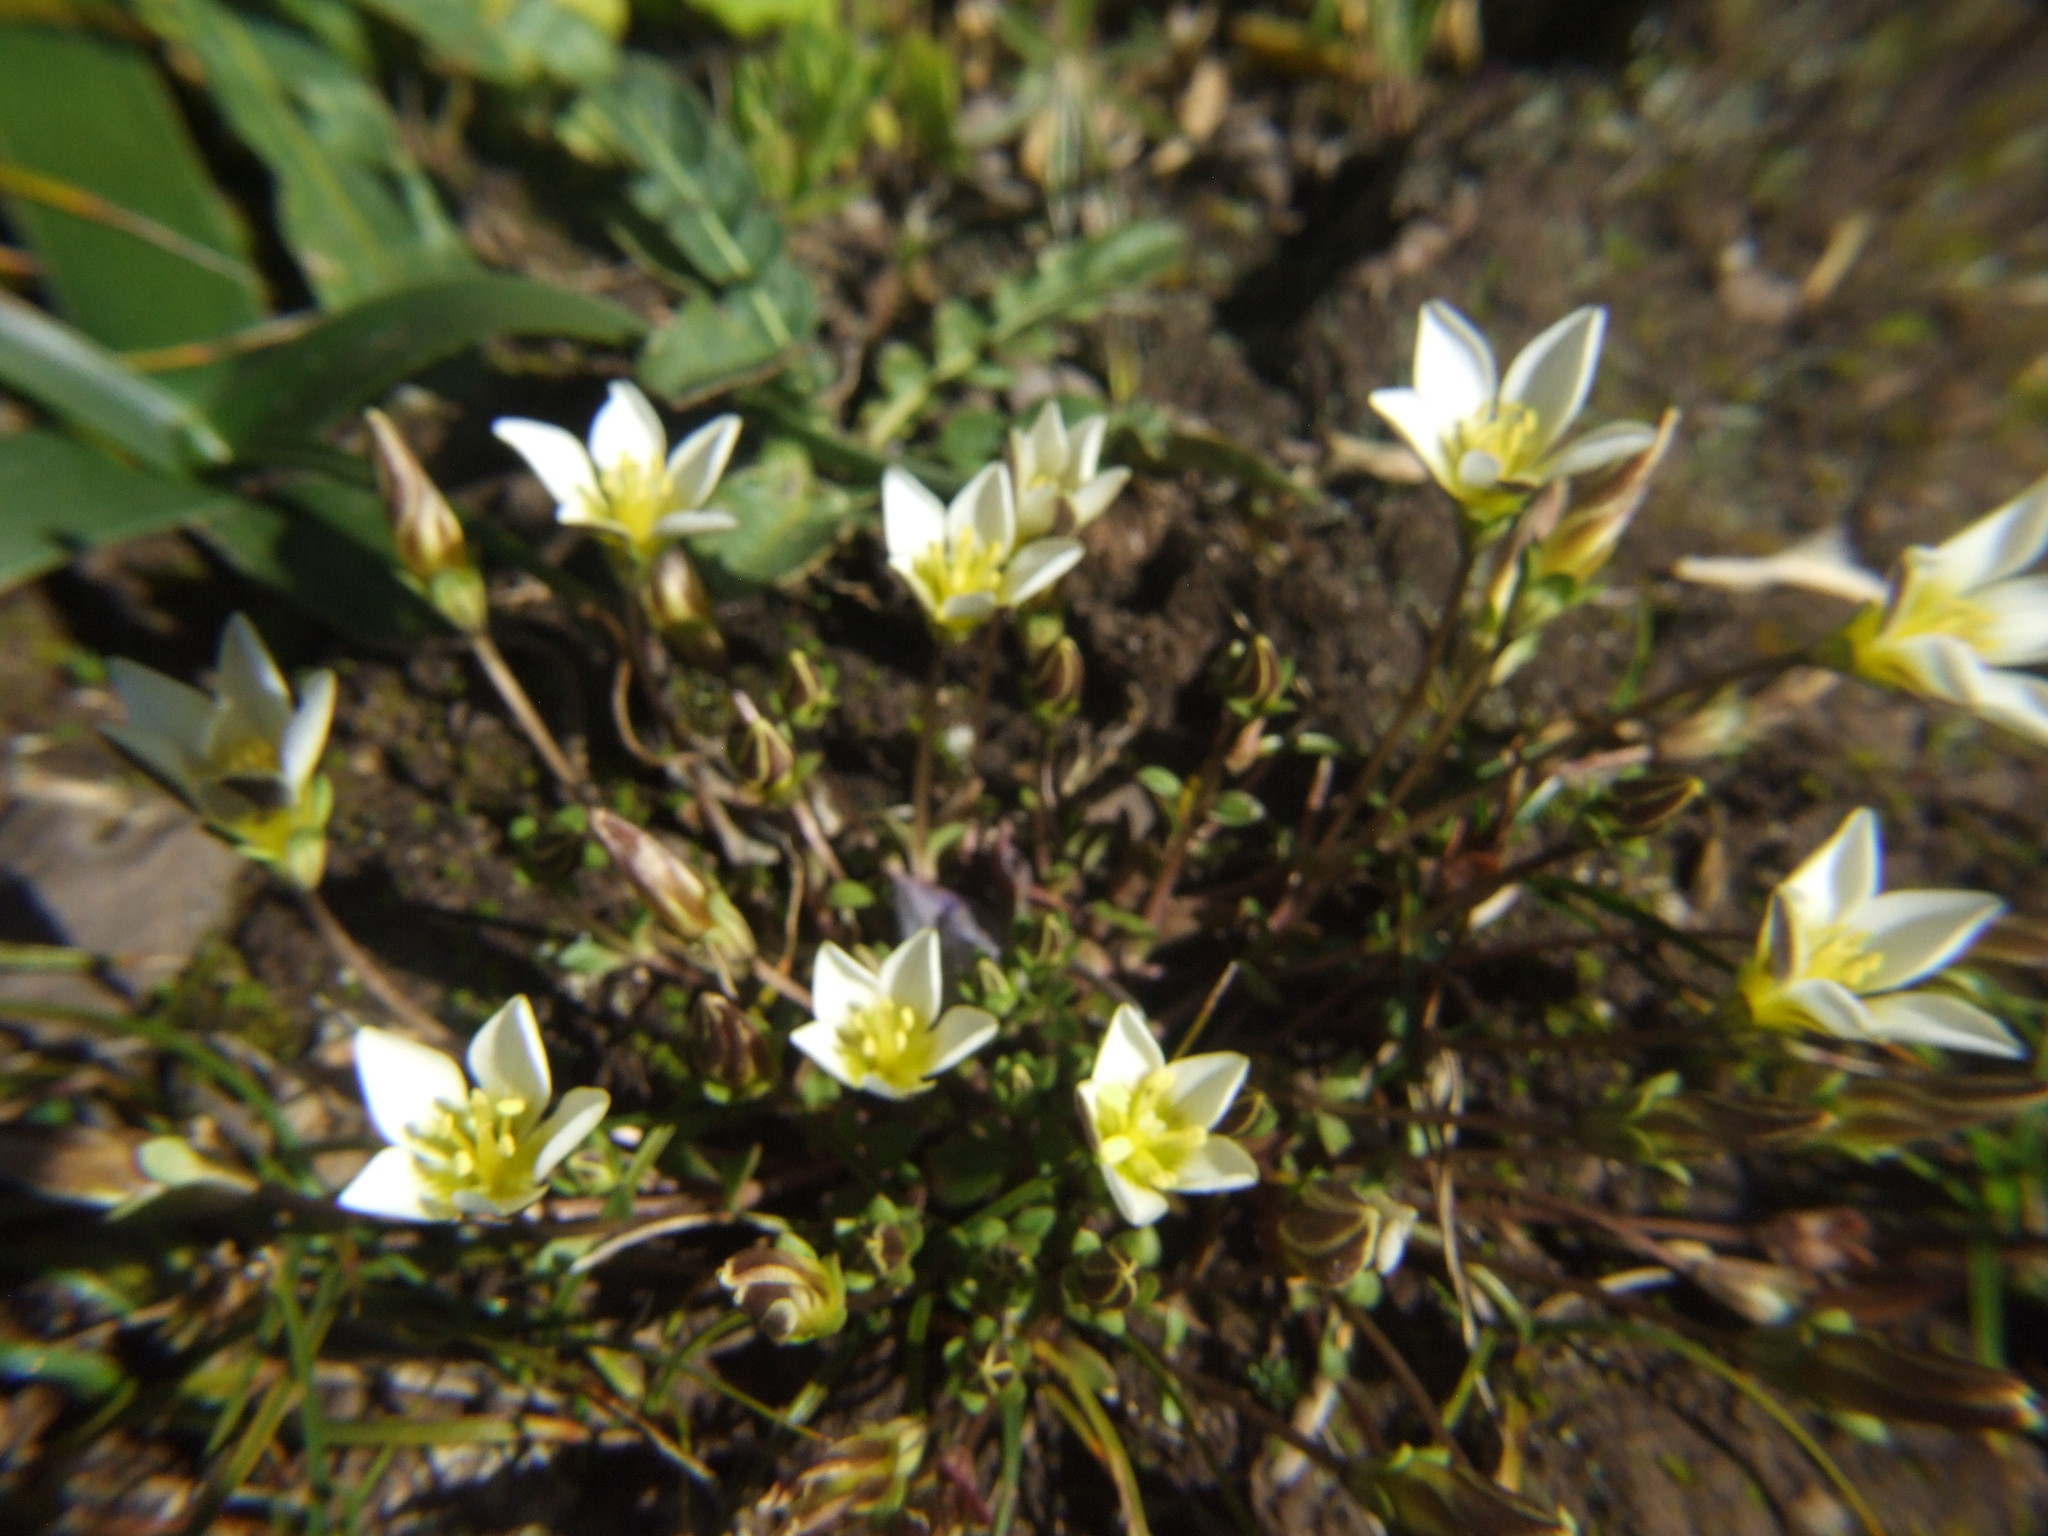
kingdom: Plantae
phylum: Tracheophyta
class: Magnoliopsida
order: Gentianales
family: Gentianaceae
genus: Gentianella
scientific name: Gentianella limoselloides
